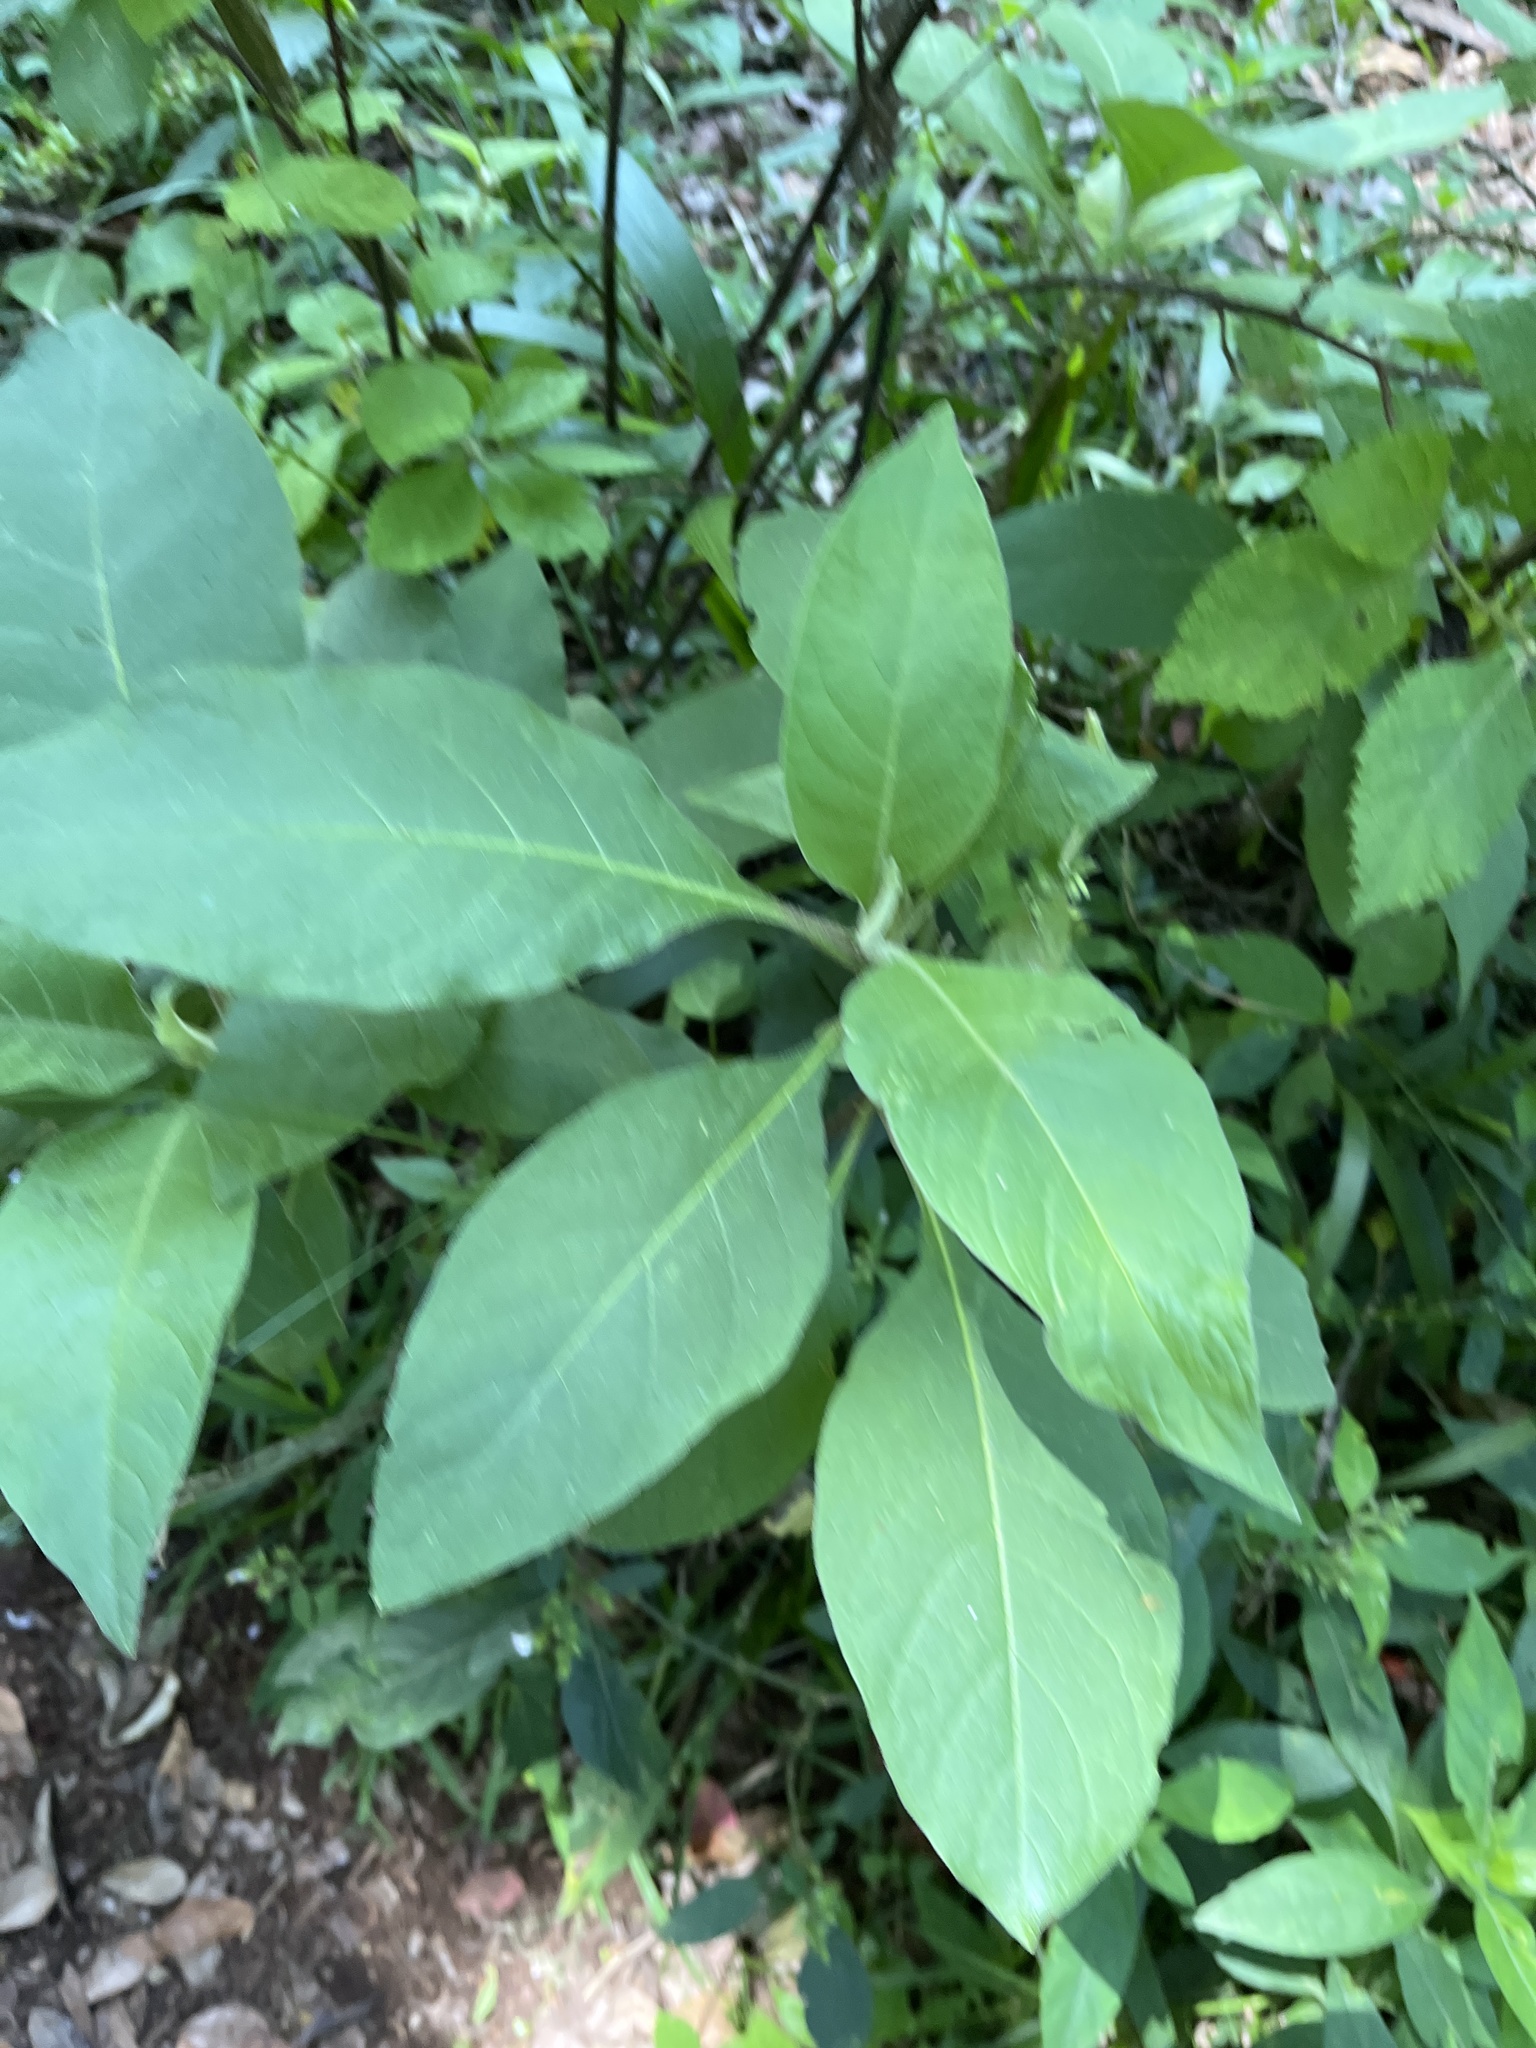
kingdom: Plantae
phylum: Tracheophyta
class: Magnoliopsida
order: Solanales
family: Solanaceae
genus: Solanum
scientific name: Solanum mauritianum
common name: Earleaf nightshade
